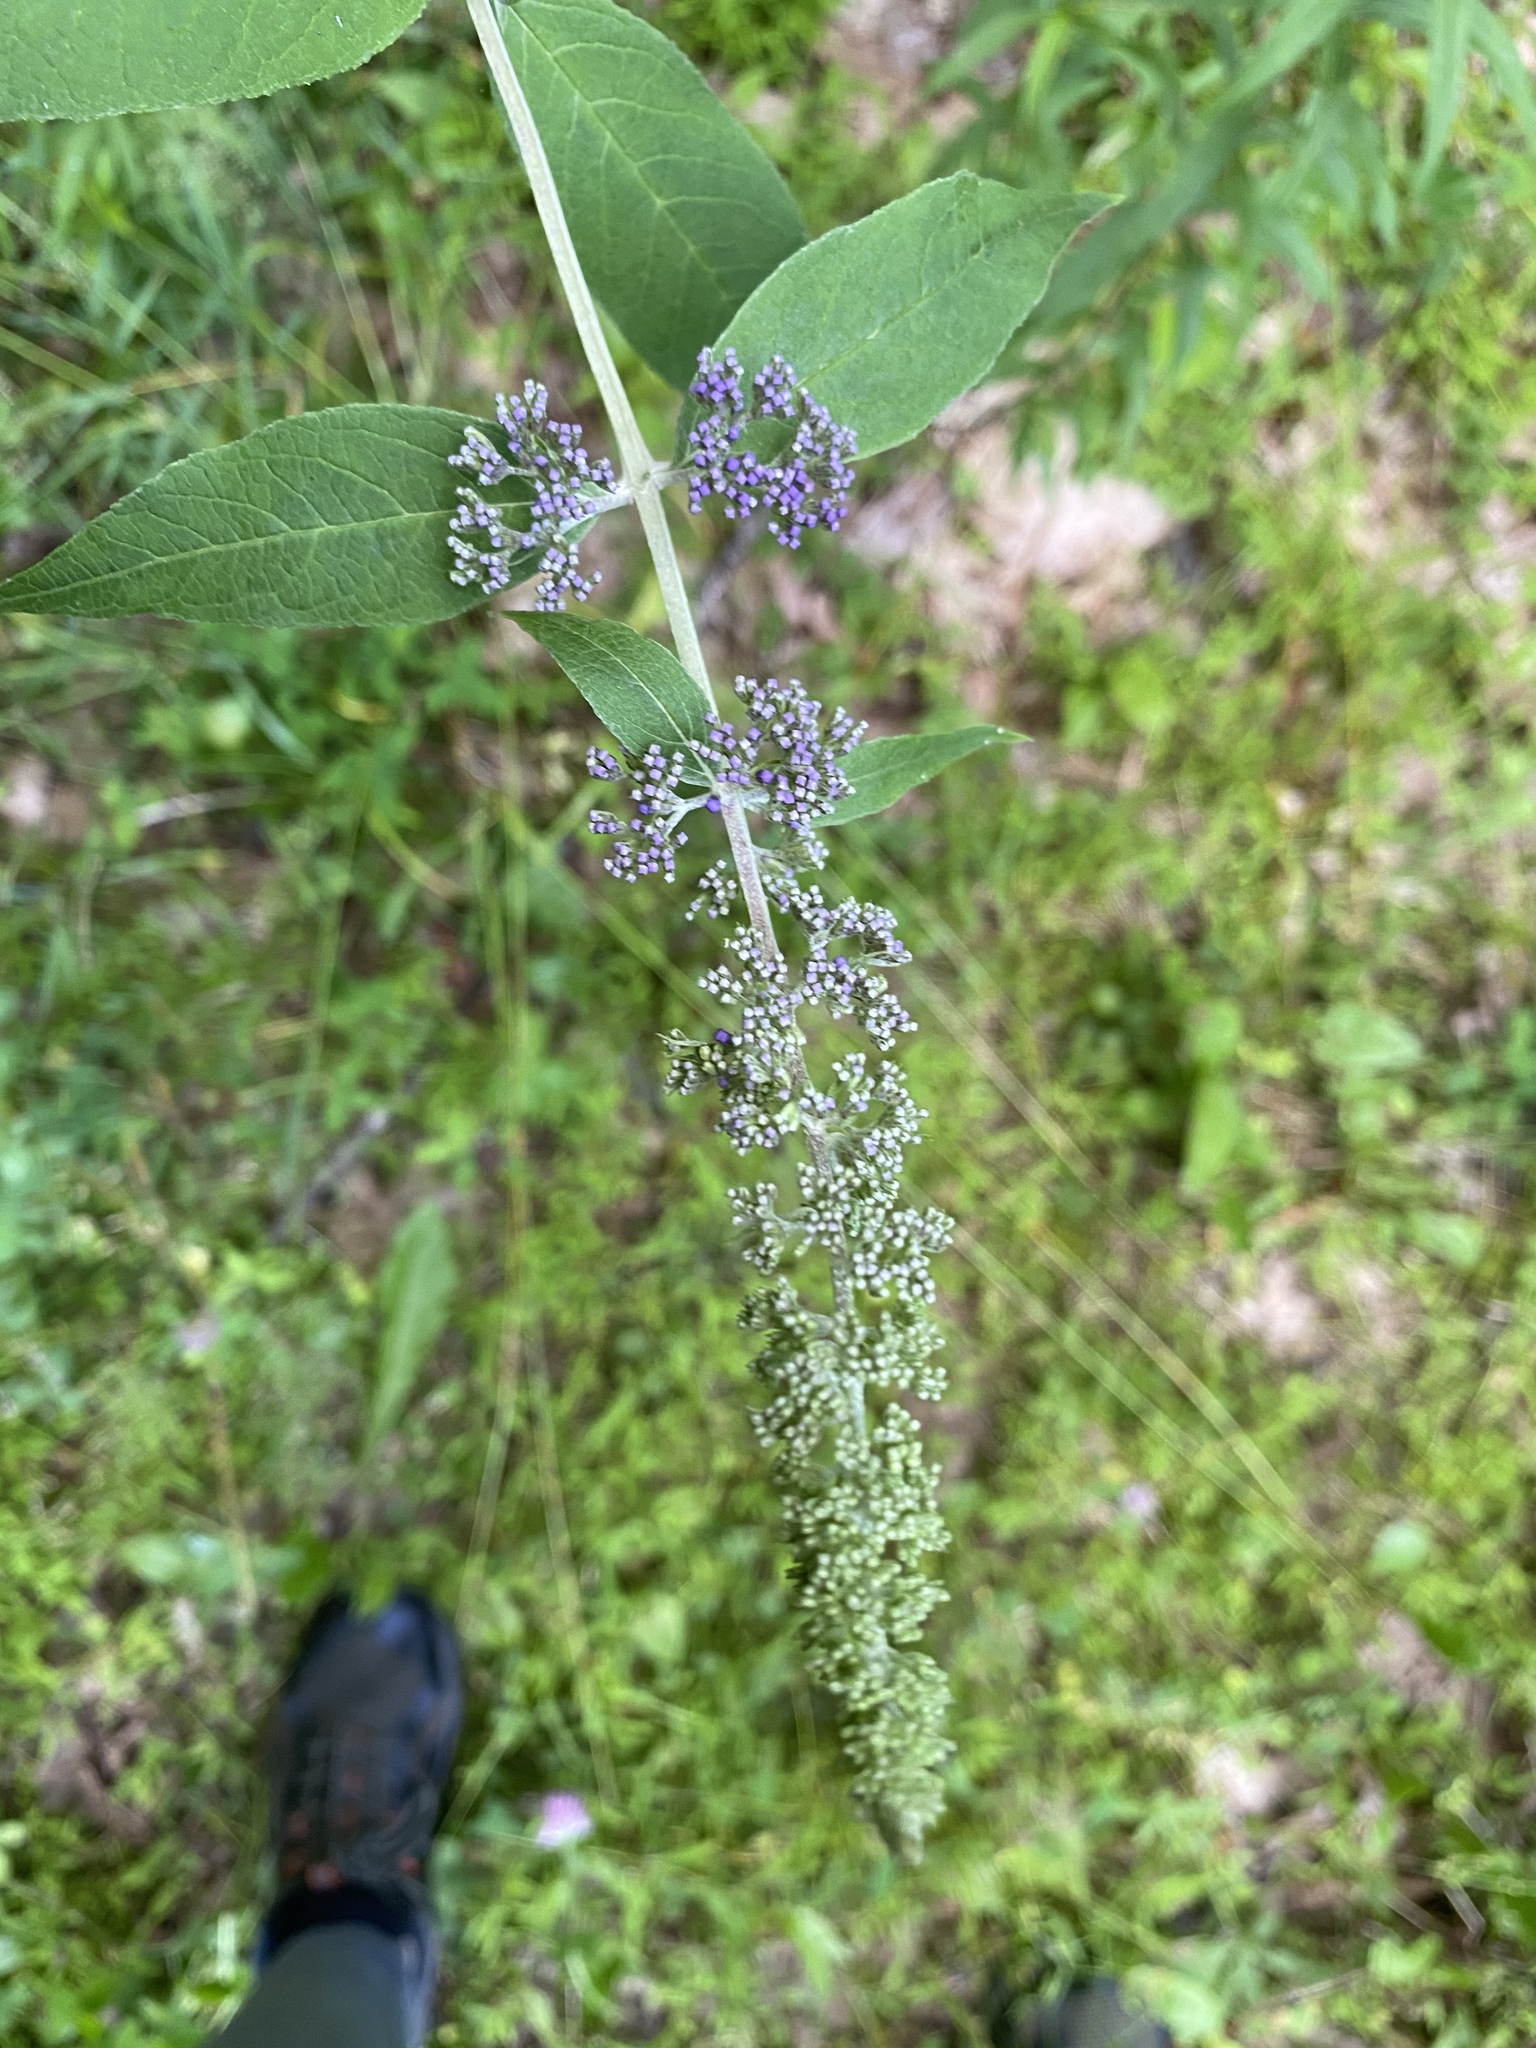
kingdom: Plantae
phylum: Tracheophyta
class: Magnoliopsida
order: Lamiales
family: Scrophulariaceae
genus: Buddleja
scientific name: Buddleja davidii
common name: Butterfly-bush
